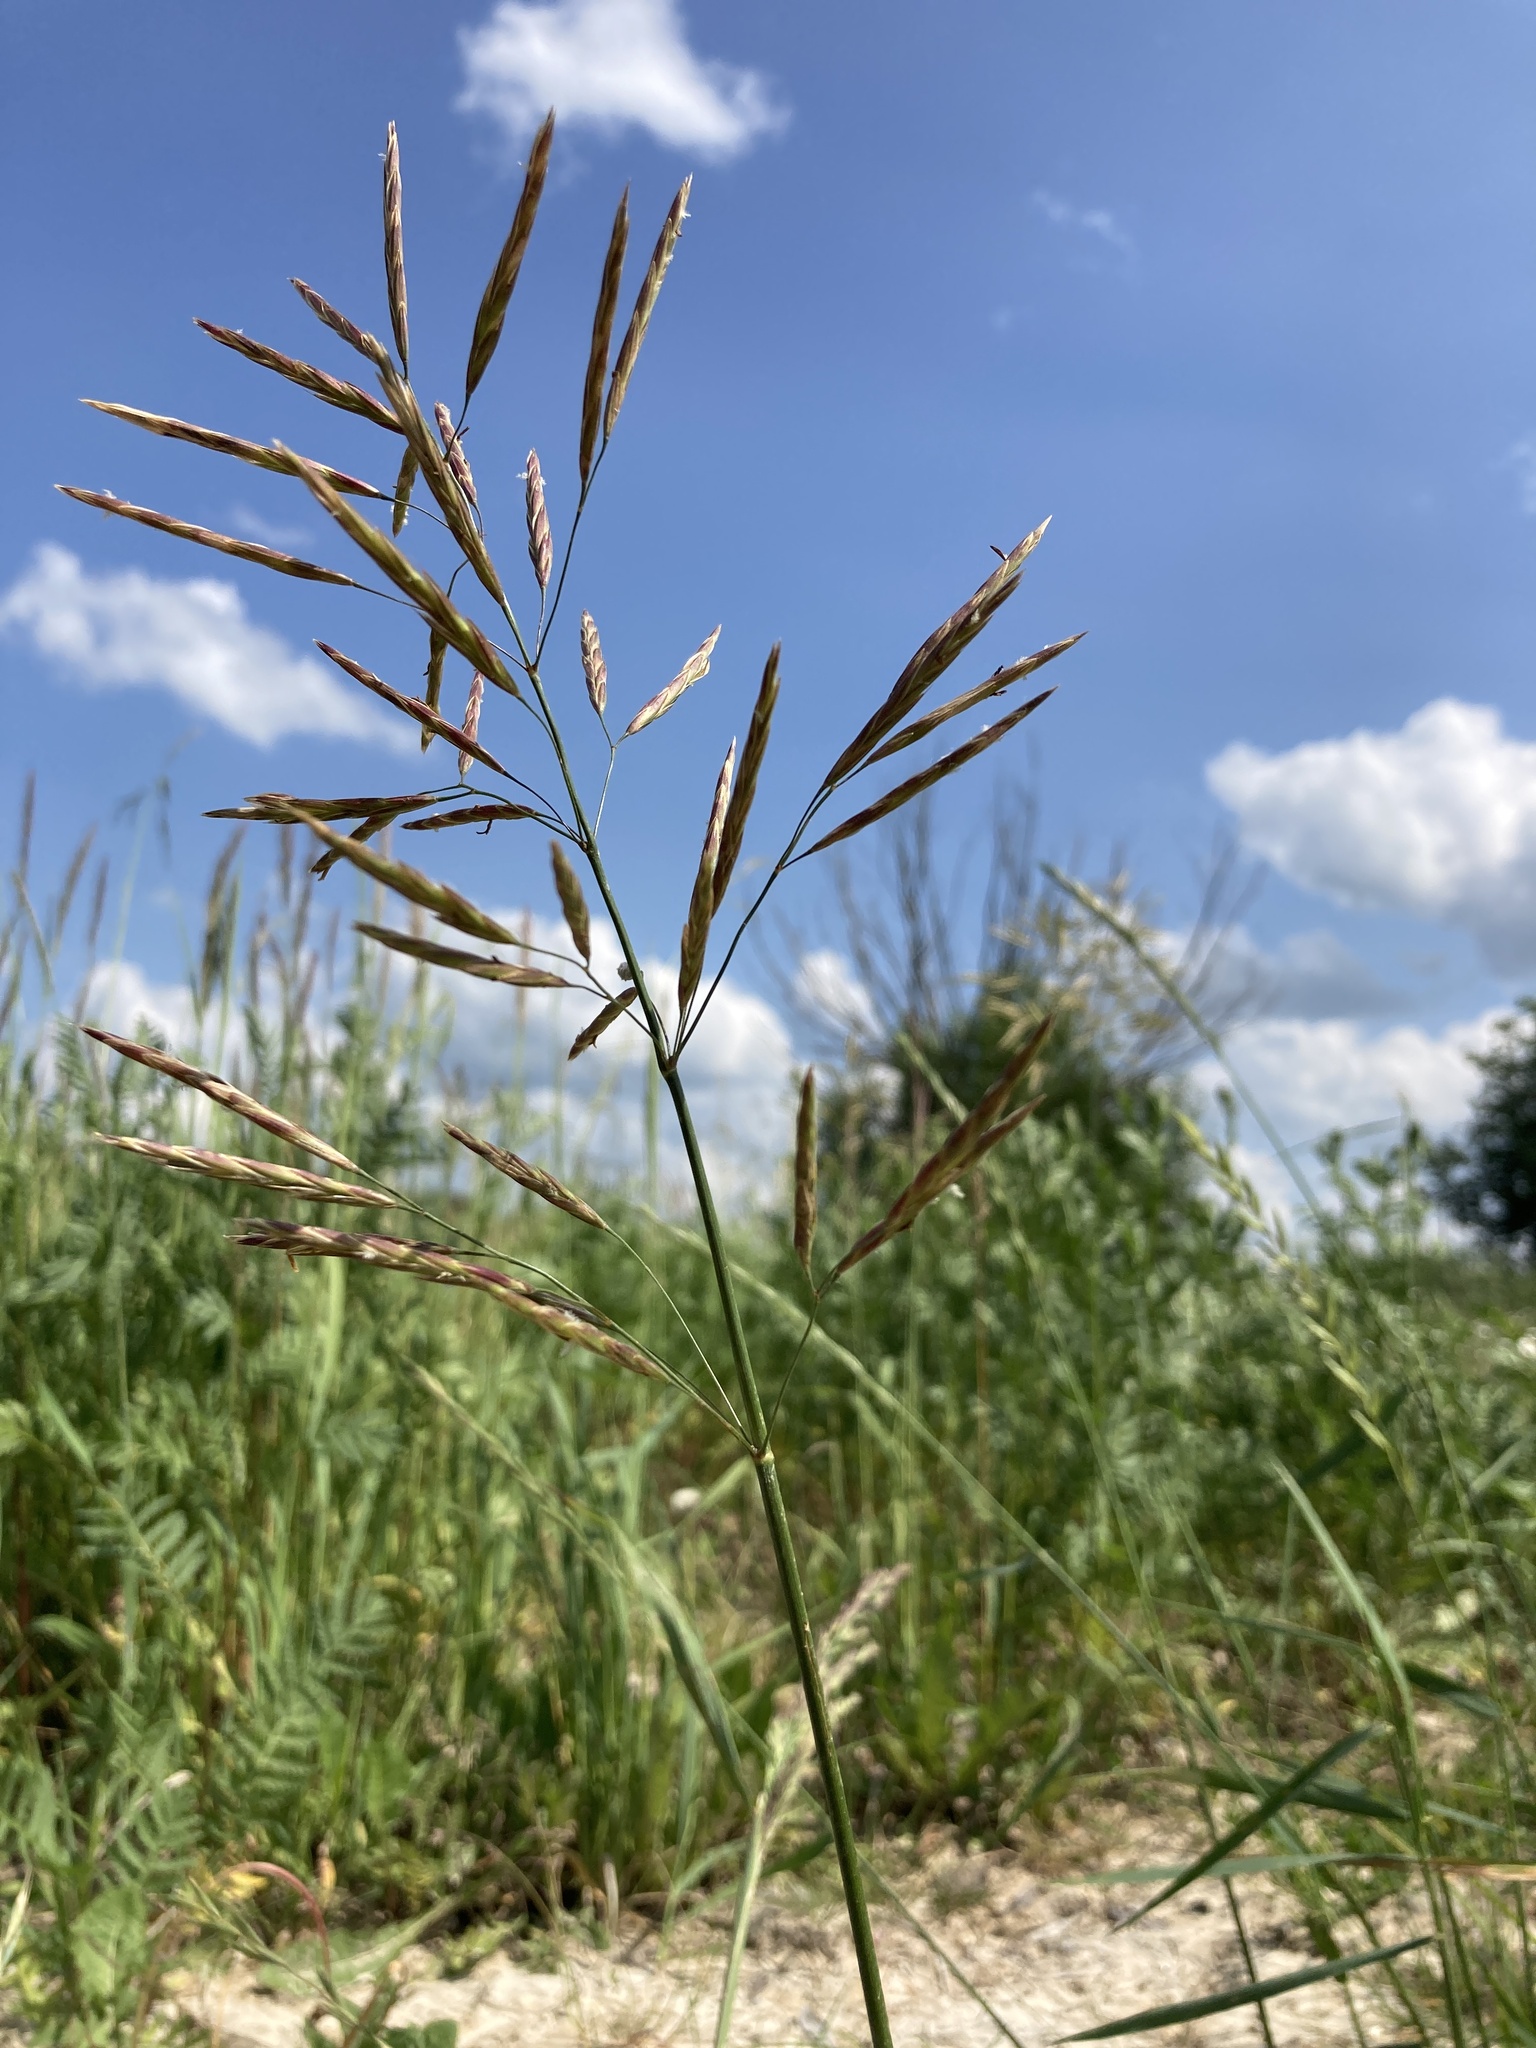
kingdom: Plantae
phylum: Tracheophyta
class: Liliopsida
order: Poales
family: Poaceae
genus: Bromus
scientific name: Bromus inermis
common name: Smooth brome
